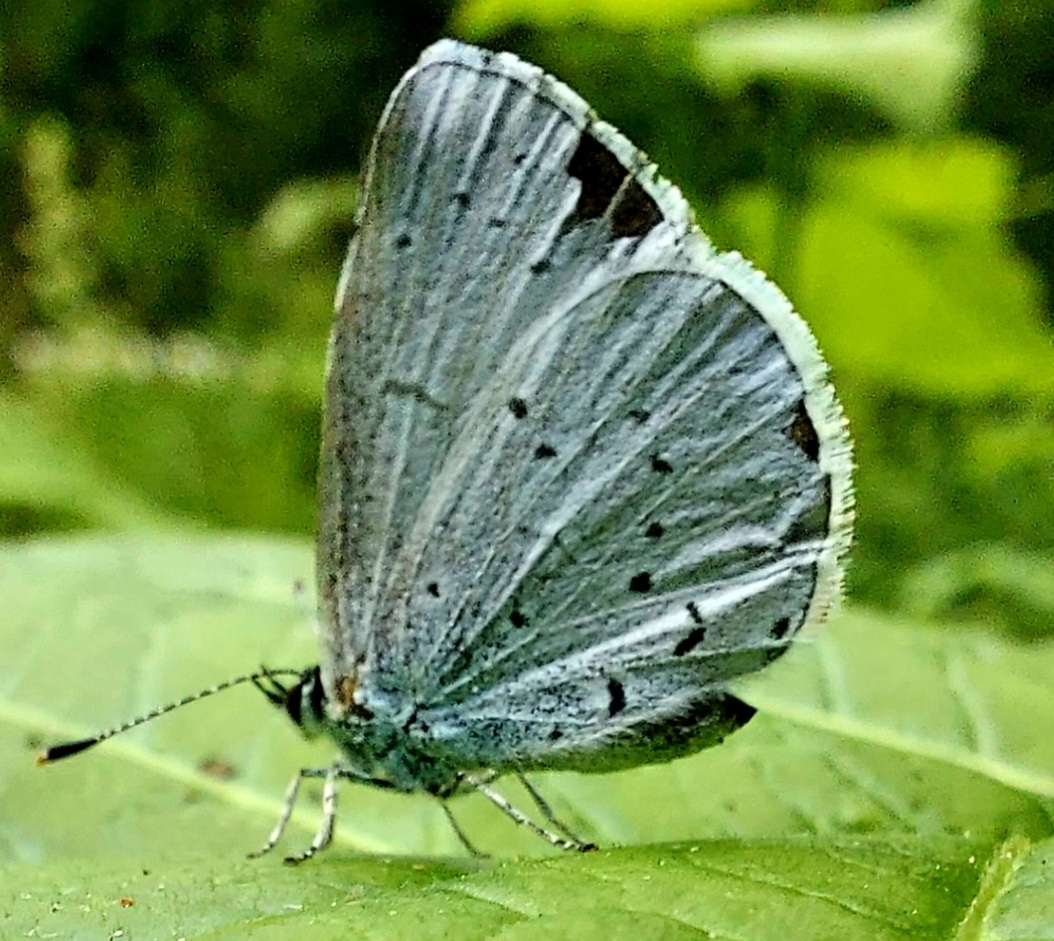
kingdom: Animalia
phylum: Arthropoda
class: Insecta
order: Lepidoptera
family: Lycaenidae
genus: Celastrina
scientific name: Celastrina argiolus
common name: Holly blue
